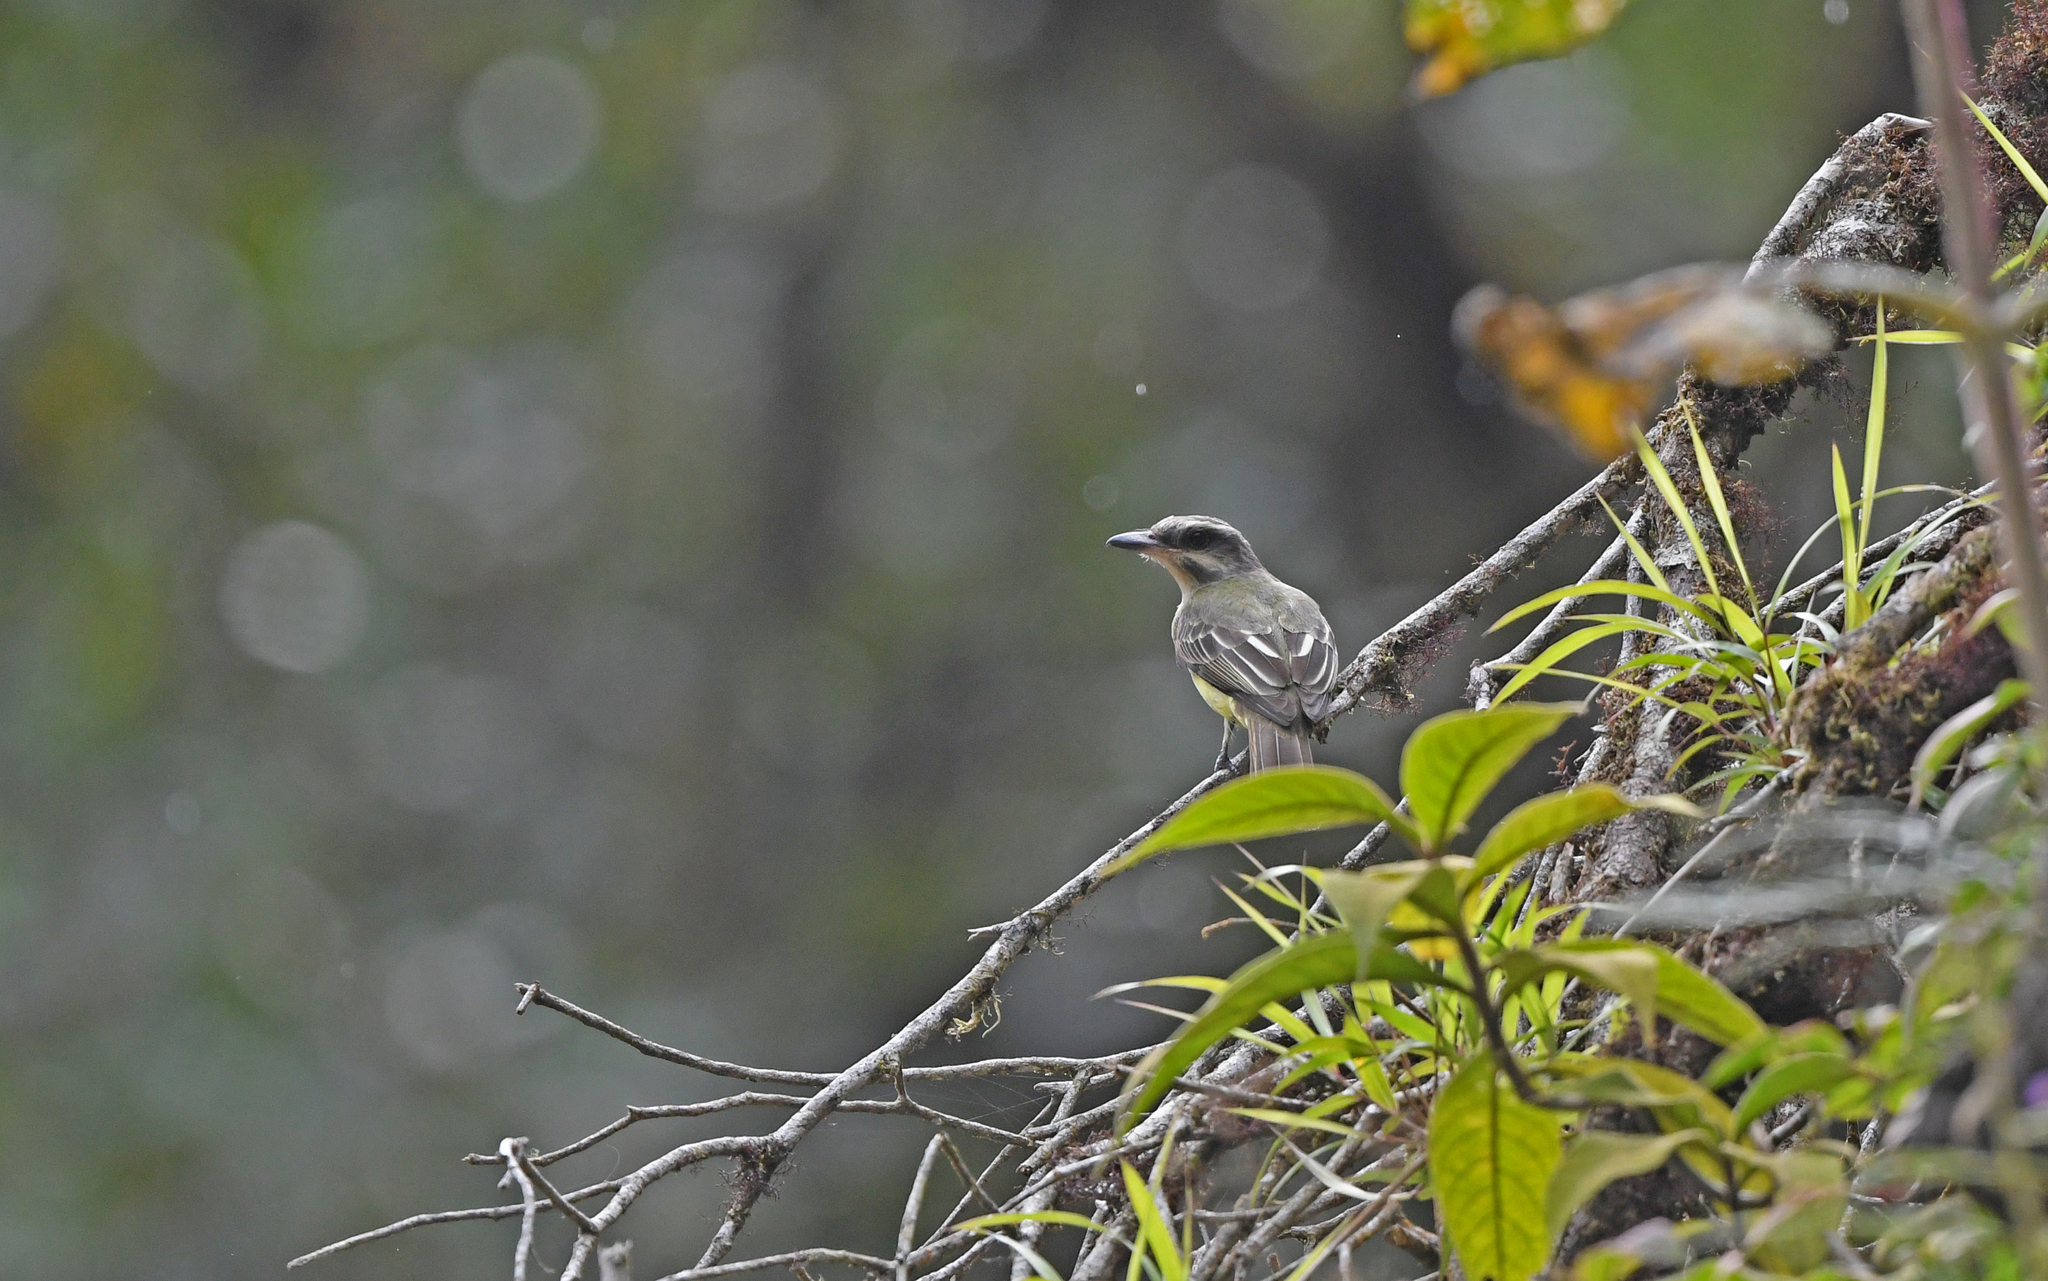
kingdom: Animalia
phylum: Chordata
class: Aves
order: Passeriformes
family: Tyrannidae
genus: Myiodynastes
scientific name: Myiodynastes chrysocephalus
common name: Golden-crowned flycatcher
